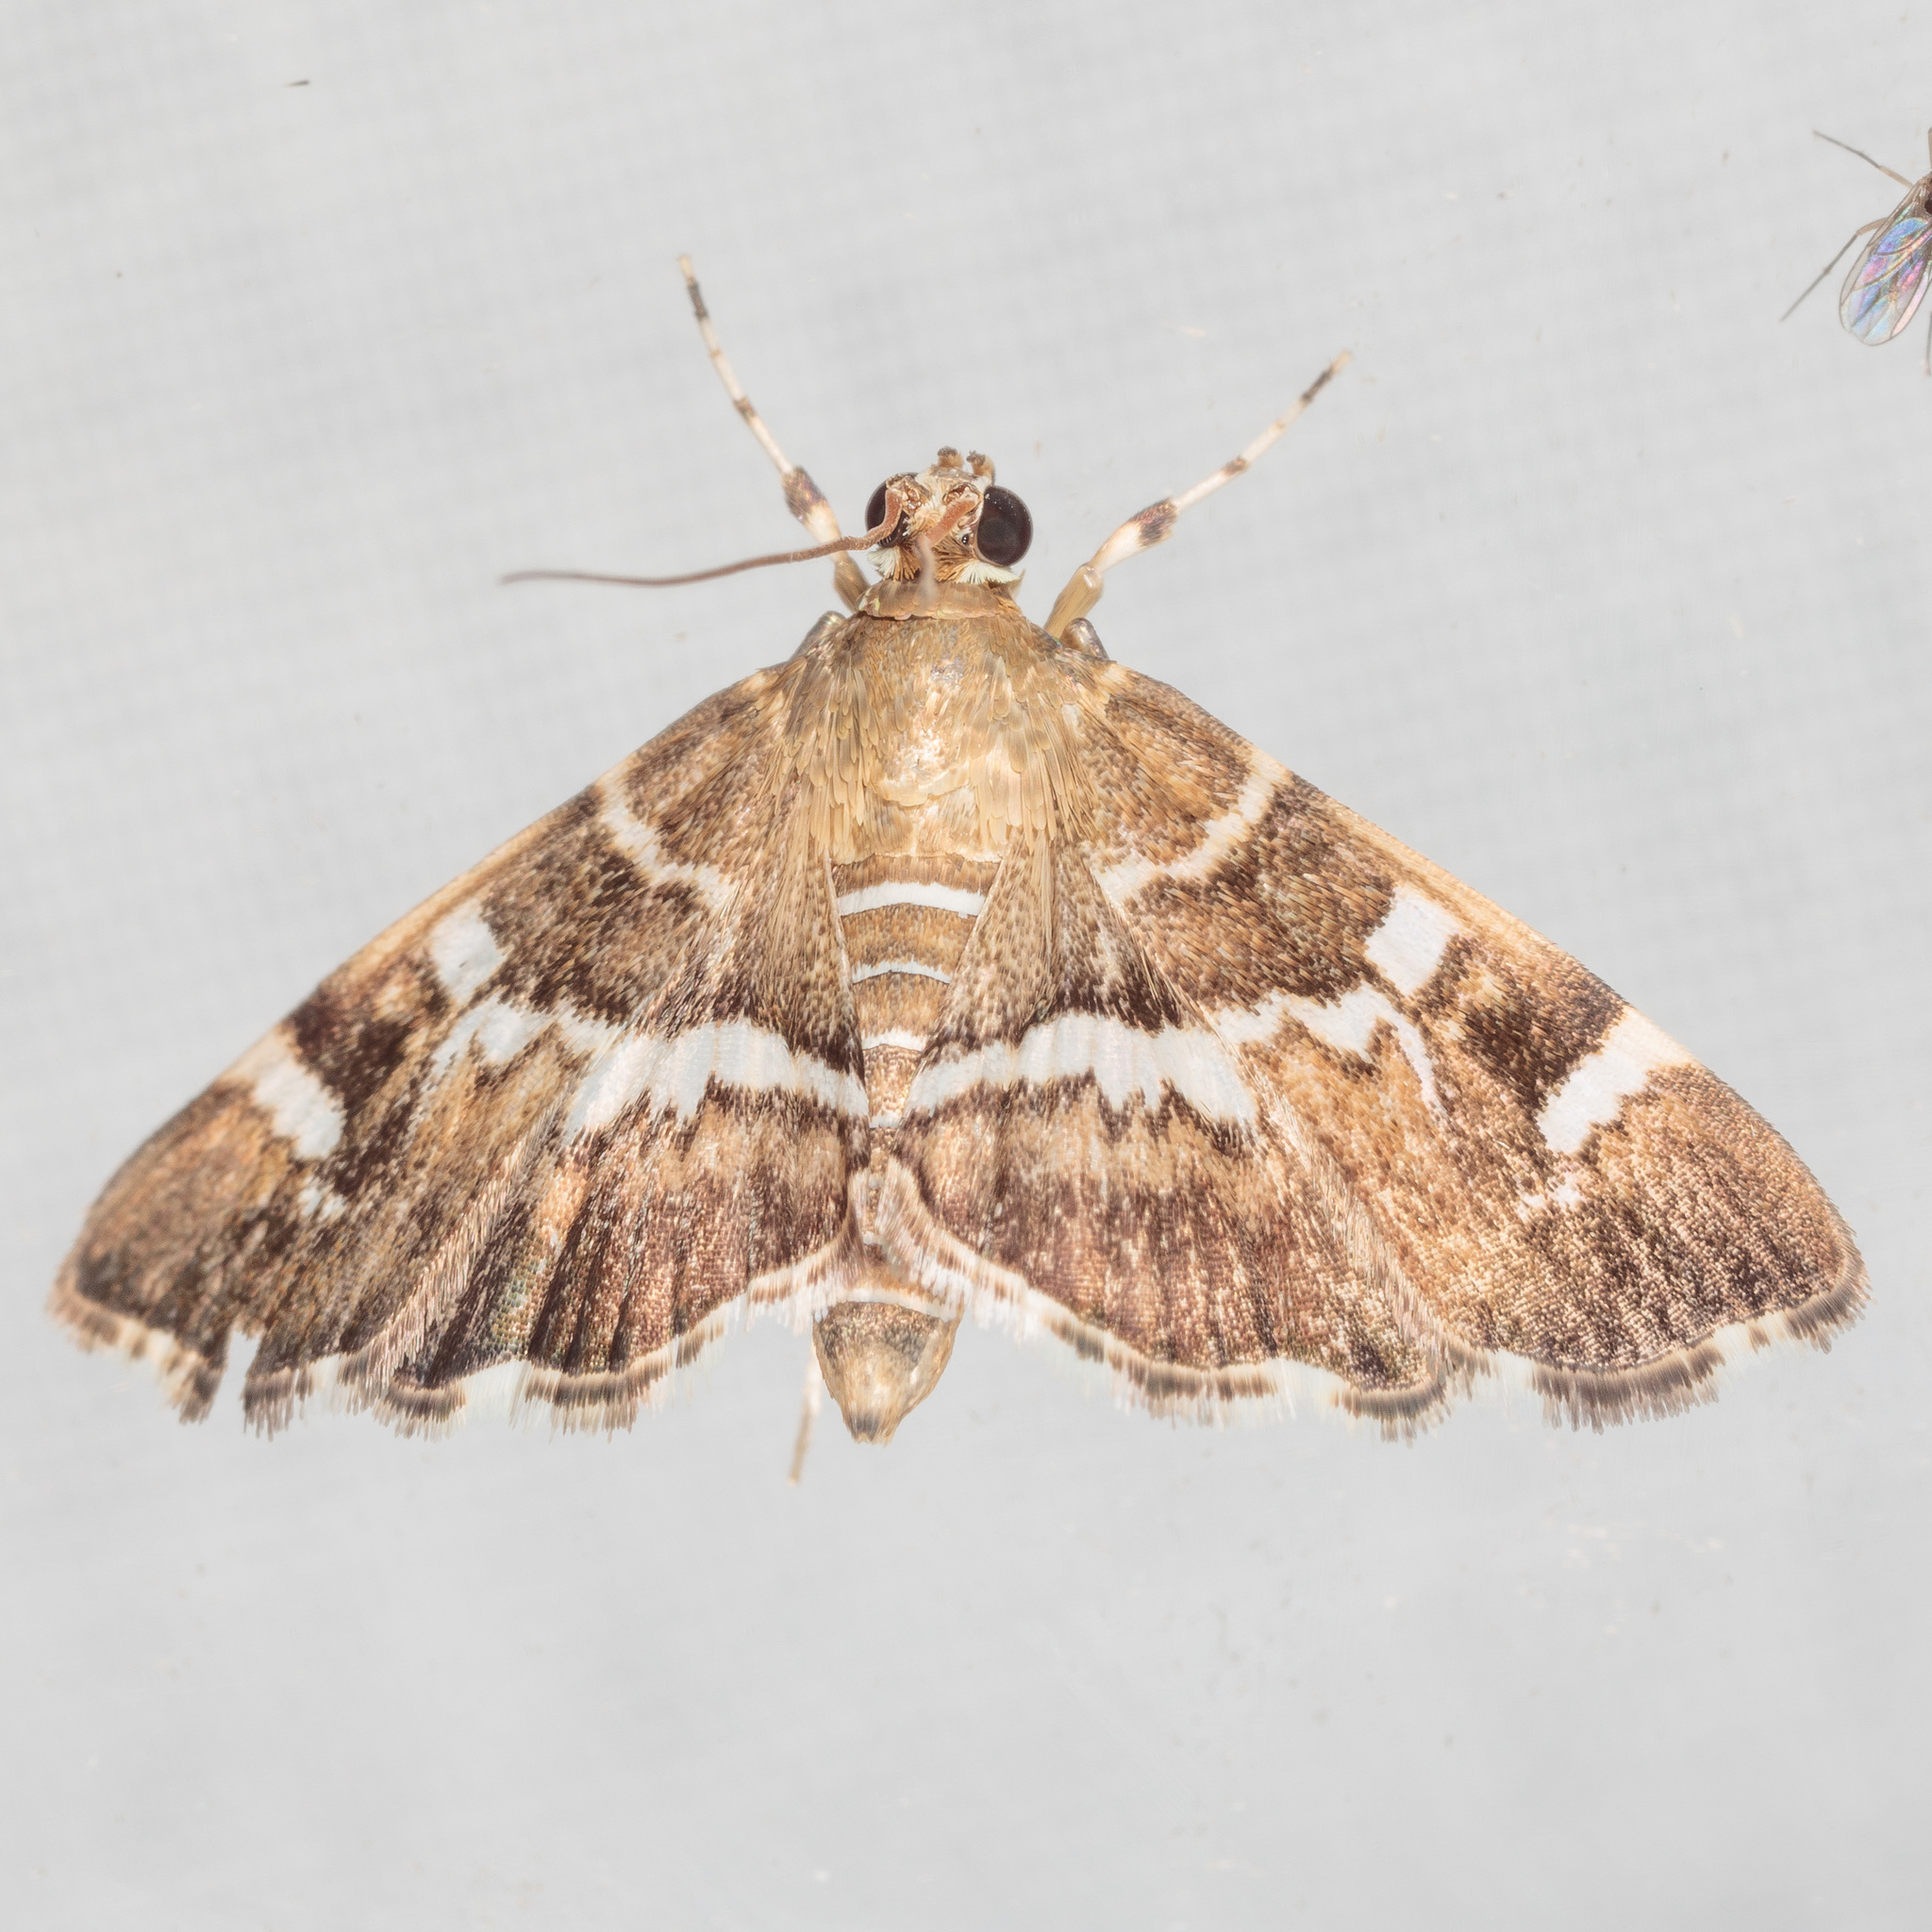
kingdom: Animalia
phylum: Arthropoda
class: Insecta
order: Lepidoptera
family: Crambidae
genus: Hymenia
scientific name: Hymenia perspectalis
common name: Spotted beet webworm
